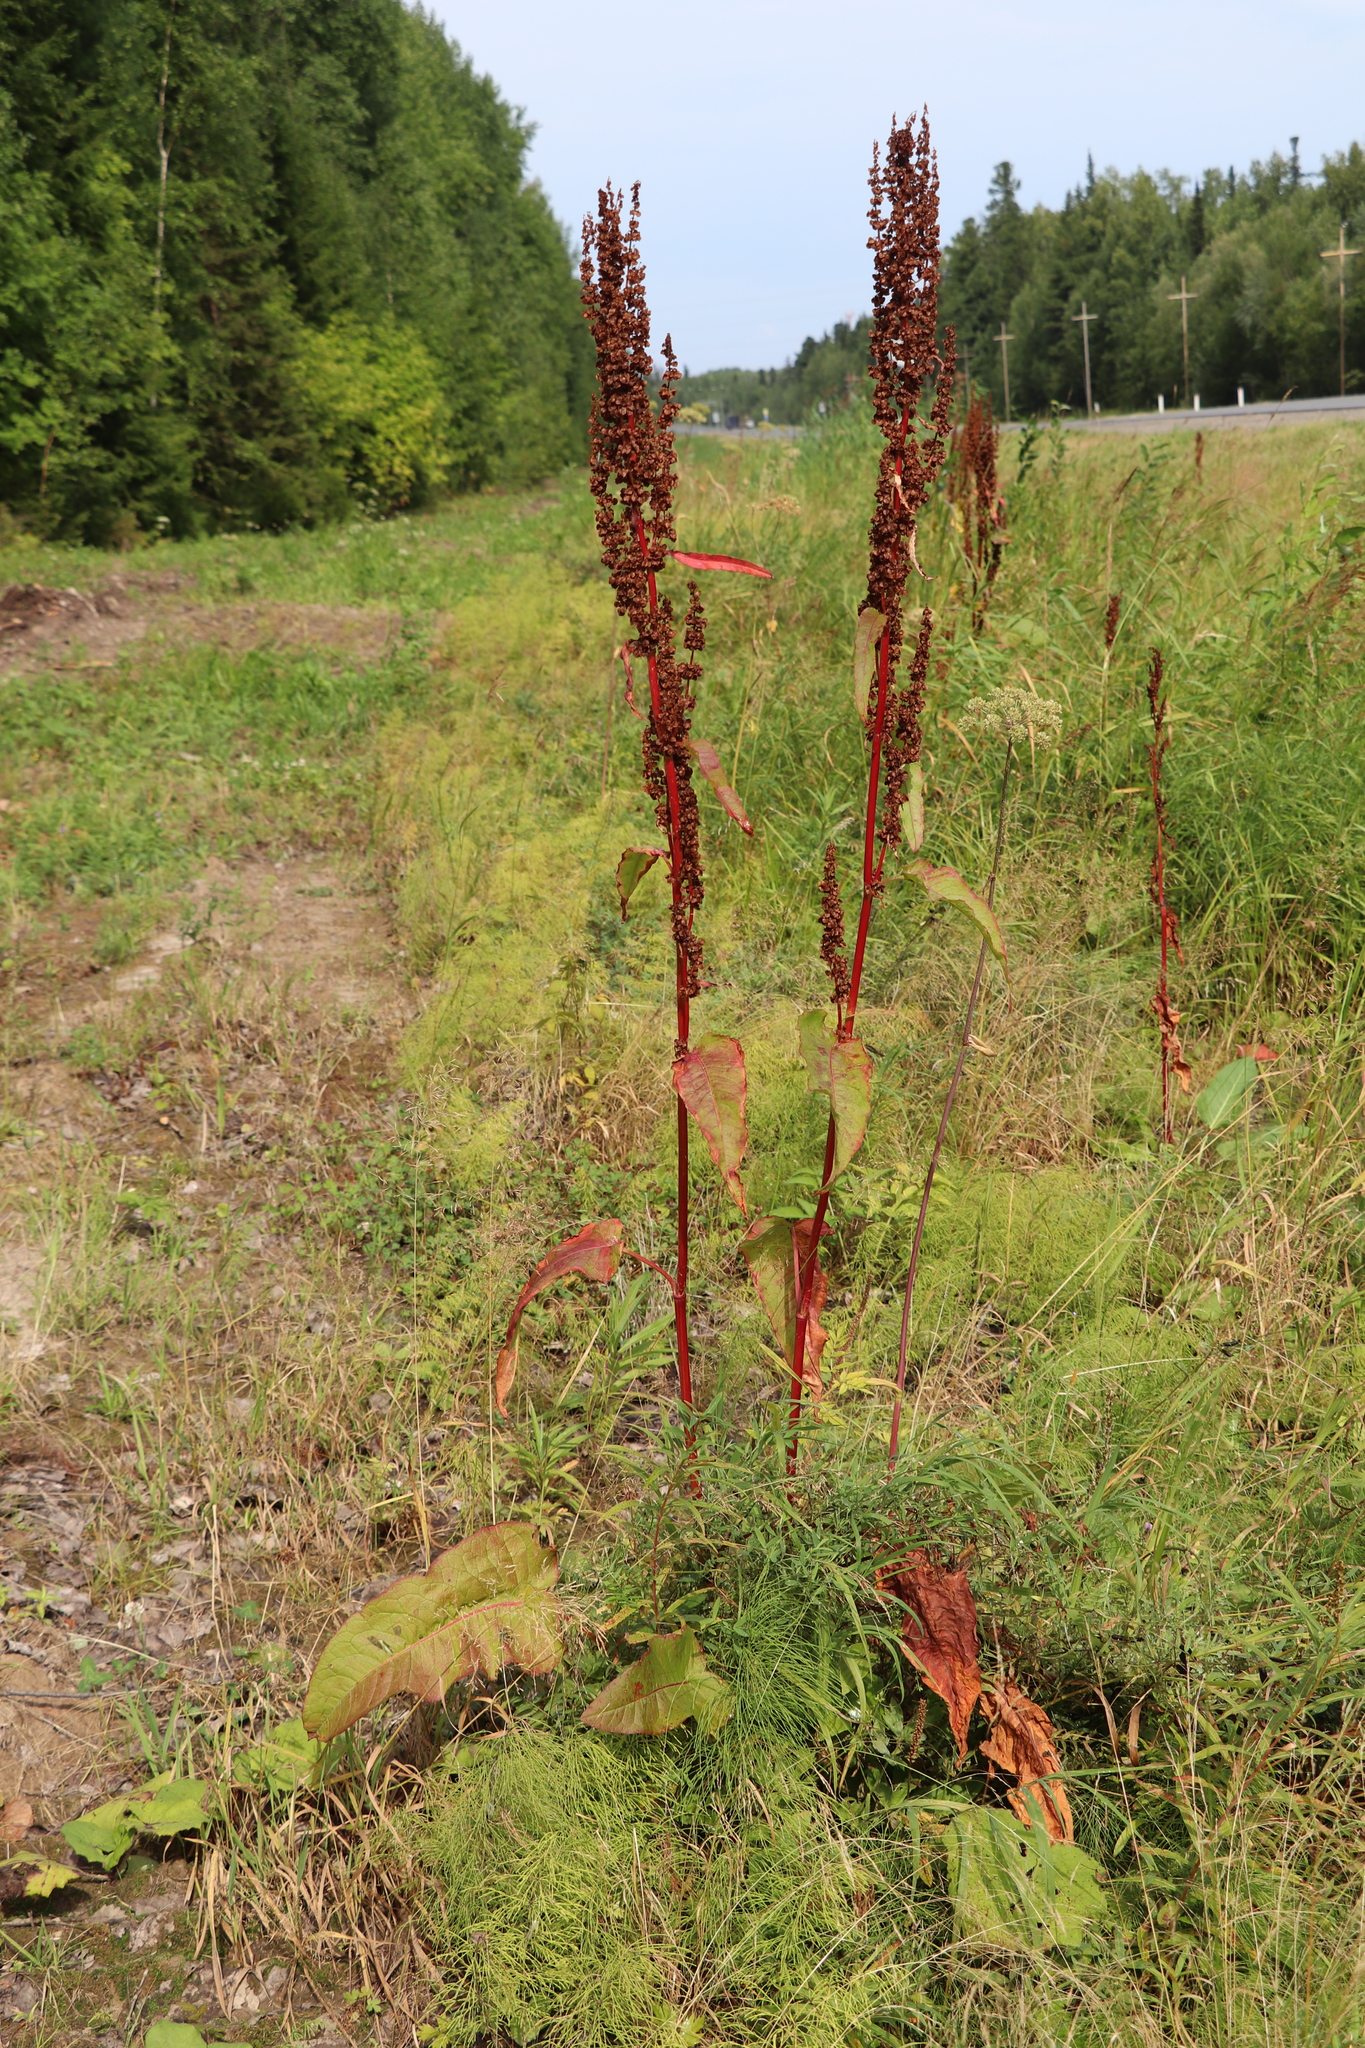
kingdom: Plantae
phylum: Tracheophyta
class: Magnoliopsida
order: Caryophyllales
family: Polygonaceae
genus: Rumex
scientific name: Rumex aquaticus
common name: Scottish dock
